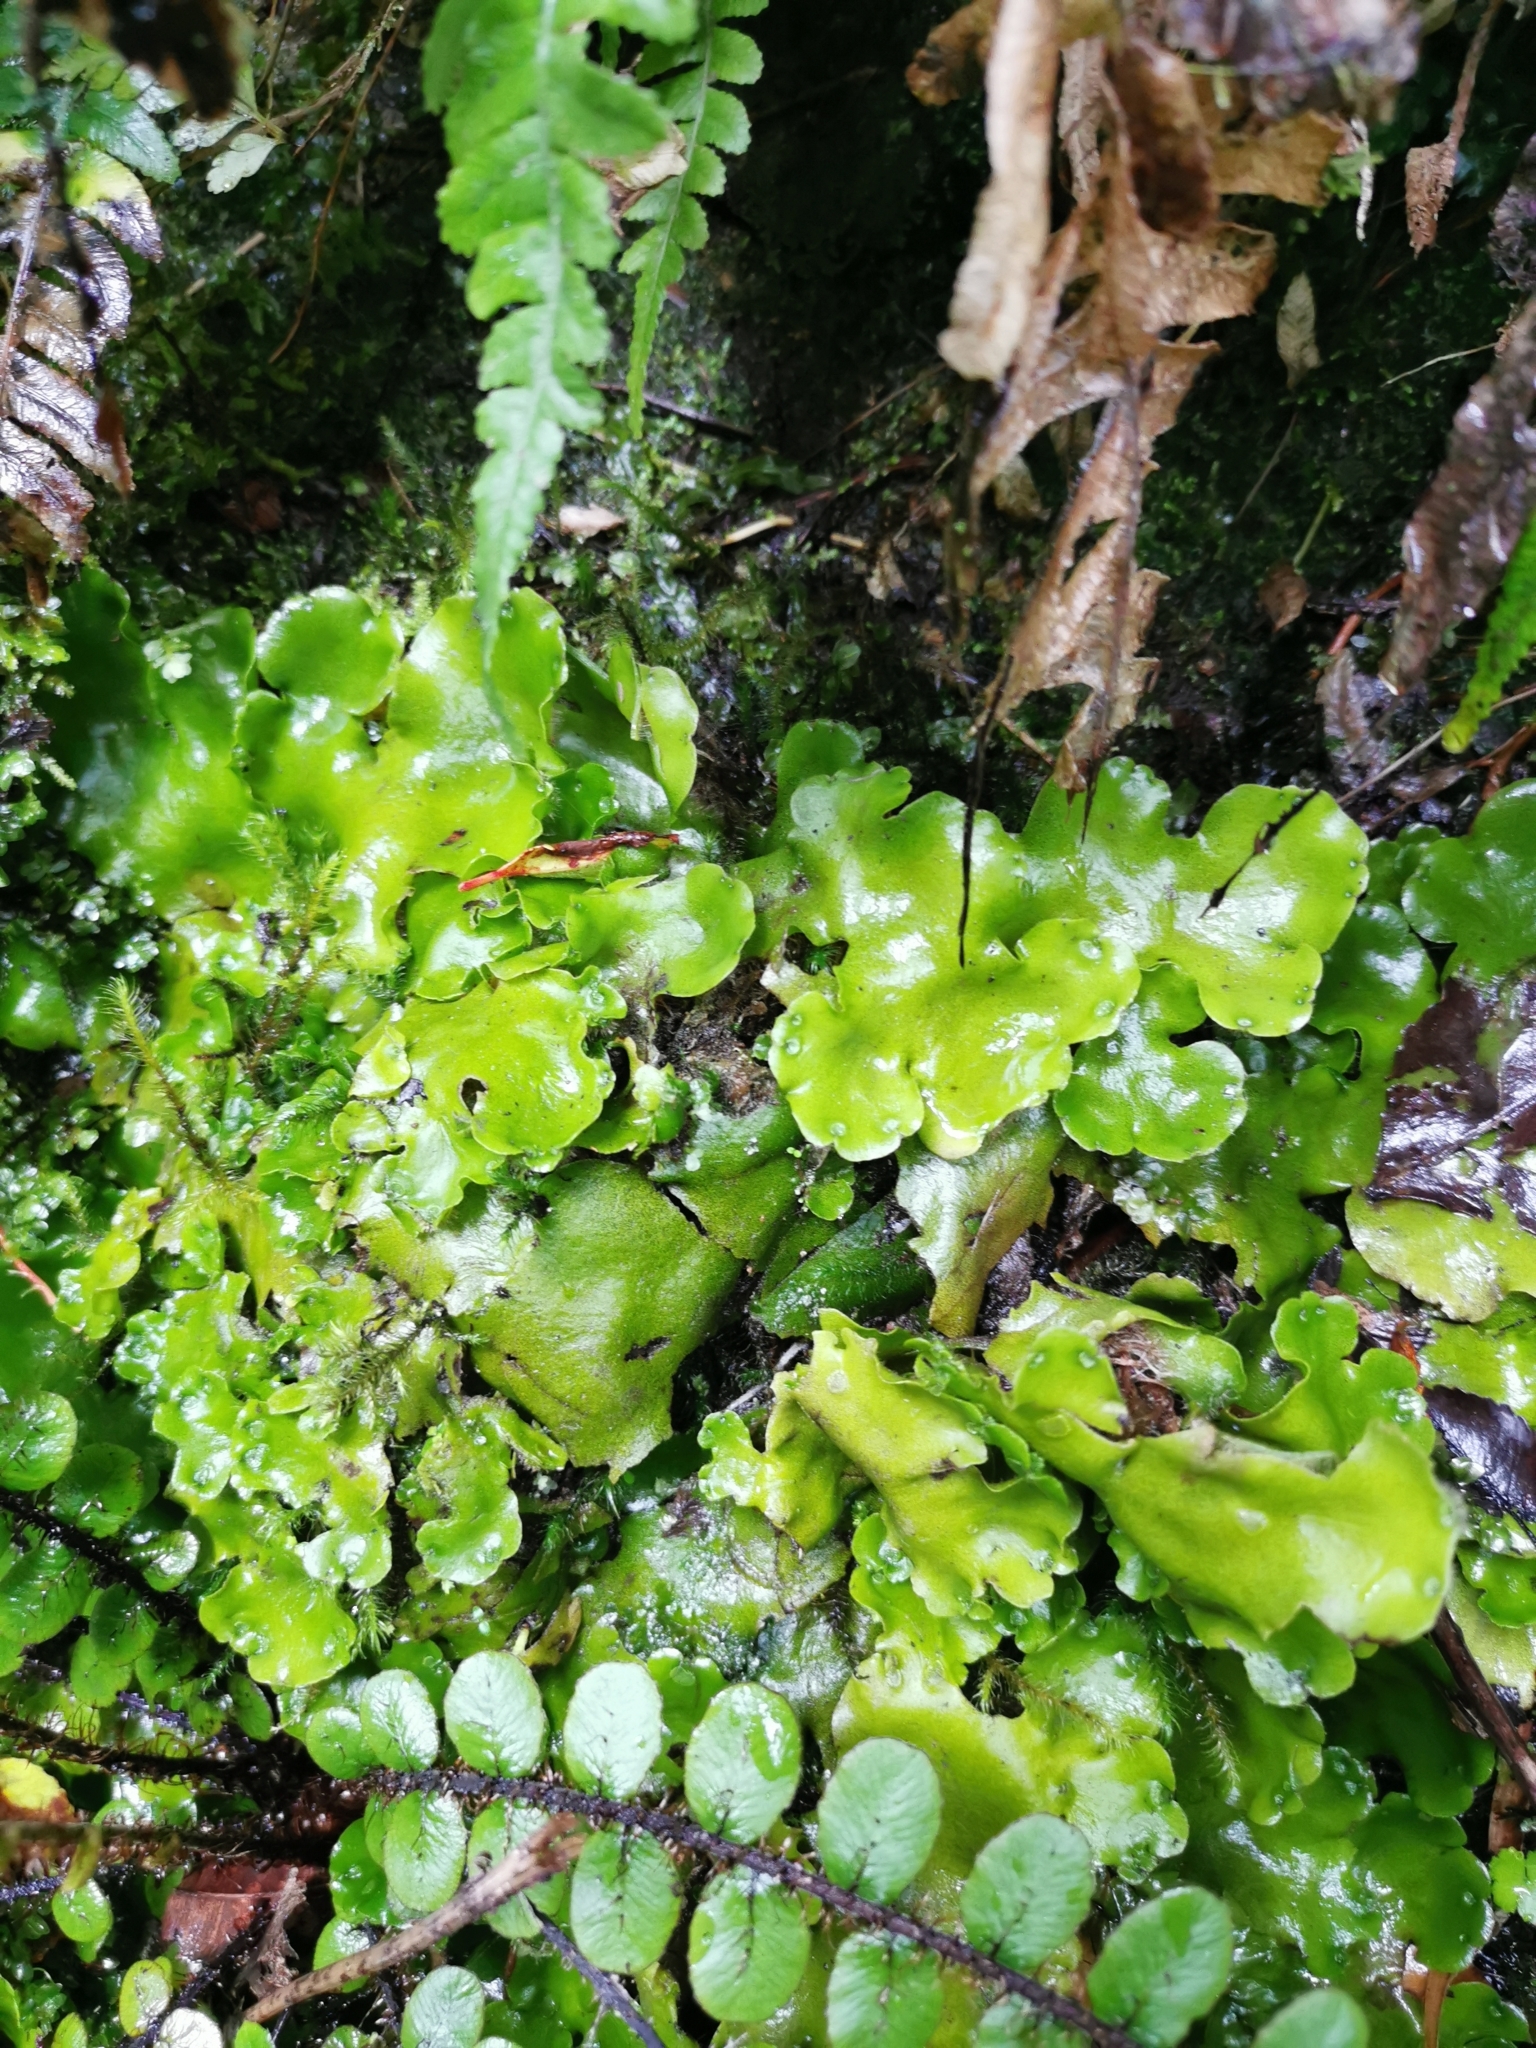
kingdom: Plantae
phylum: Marchantiophyta
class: Marchantiopsida
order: Marchantiales
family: Monocleaceae
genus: Monoclea
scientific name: Monoclea forsteri
